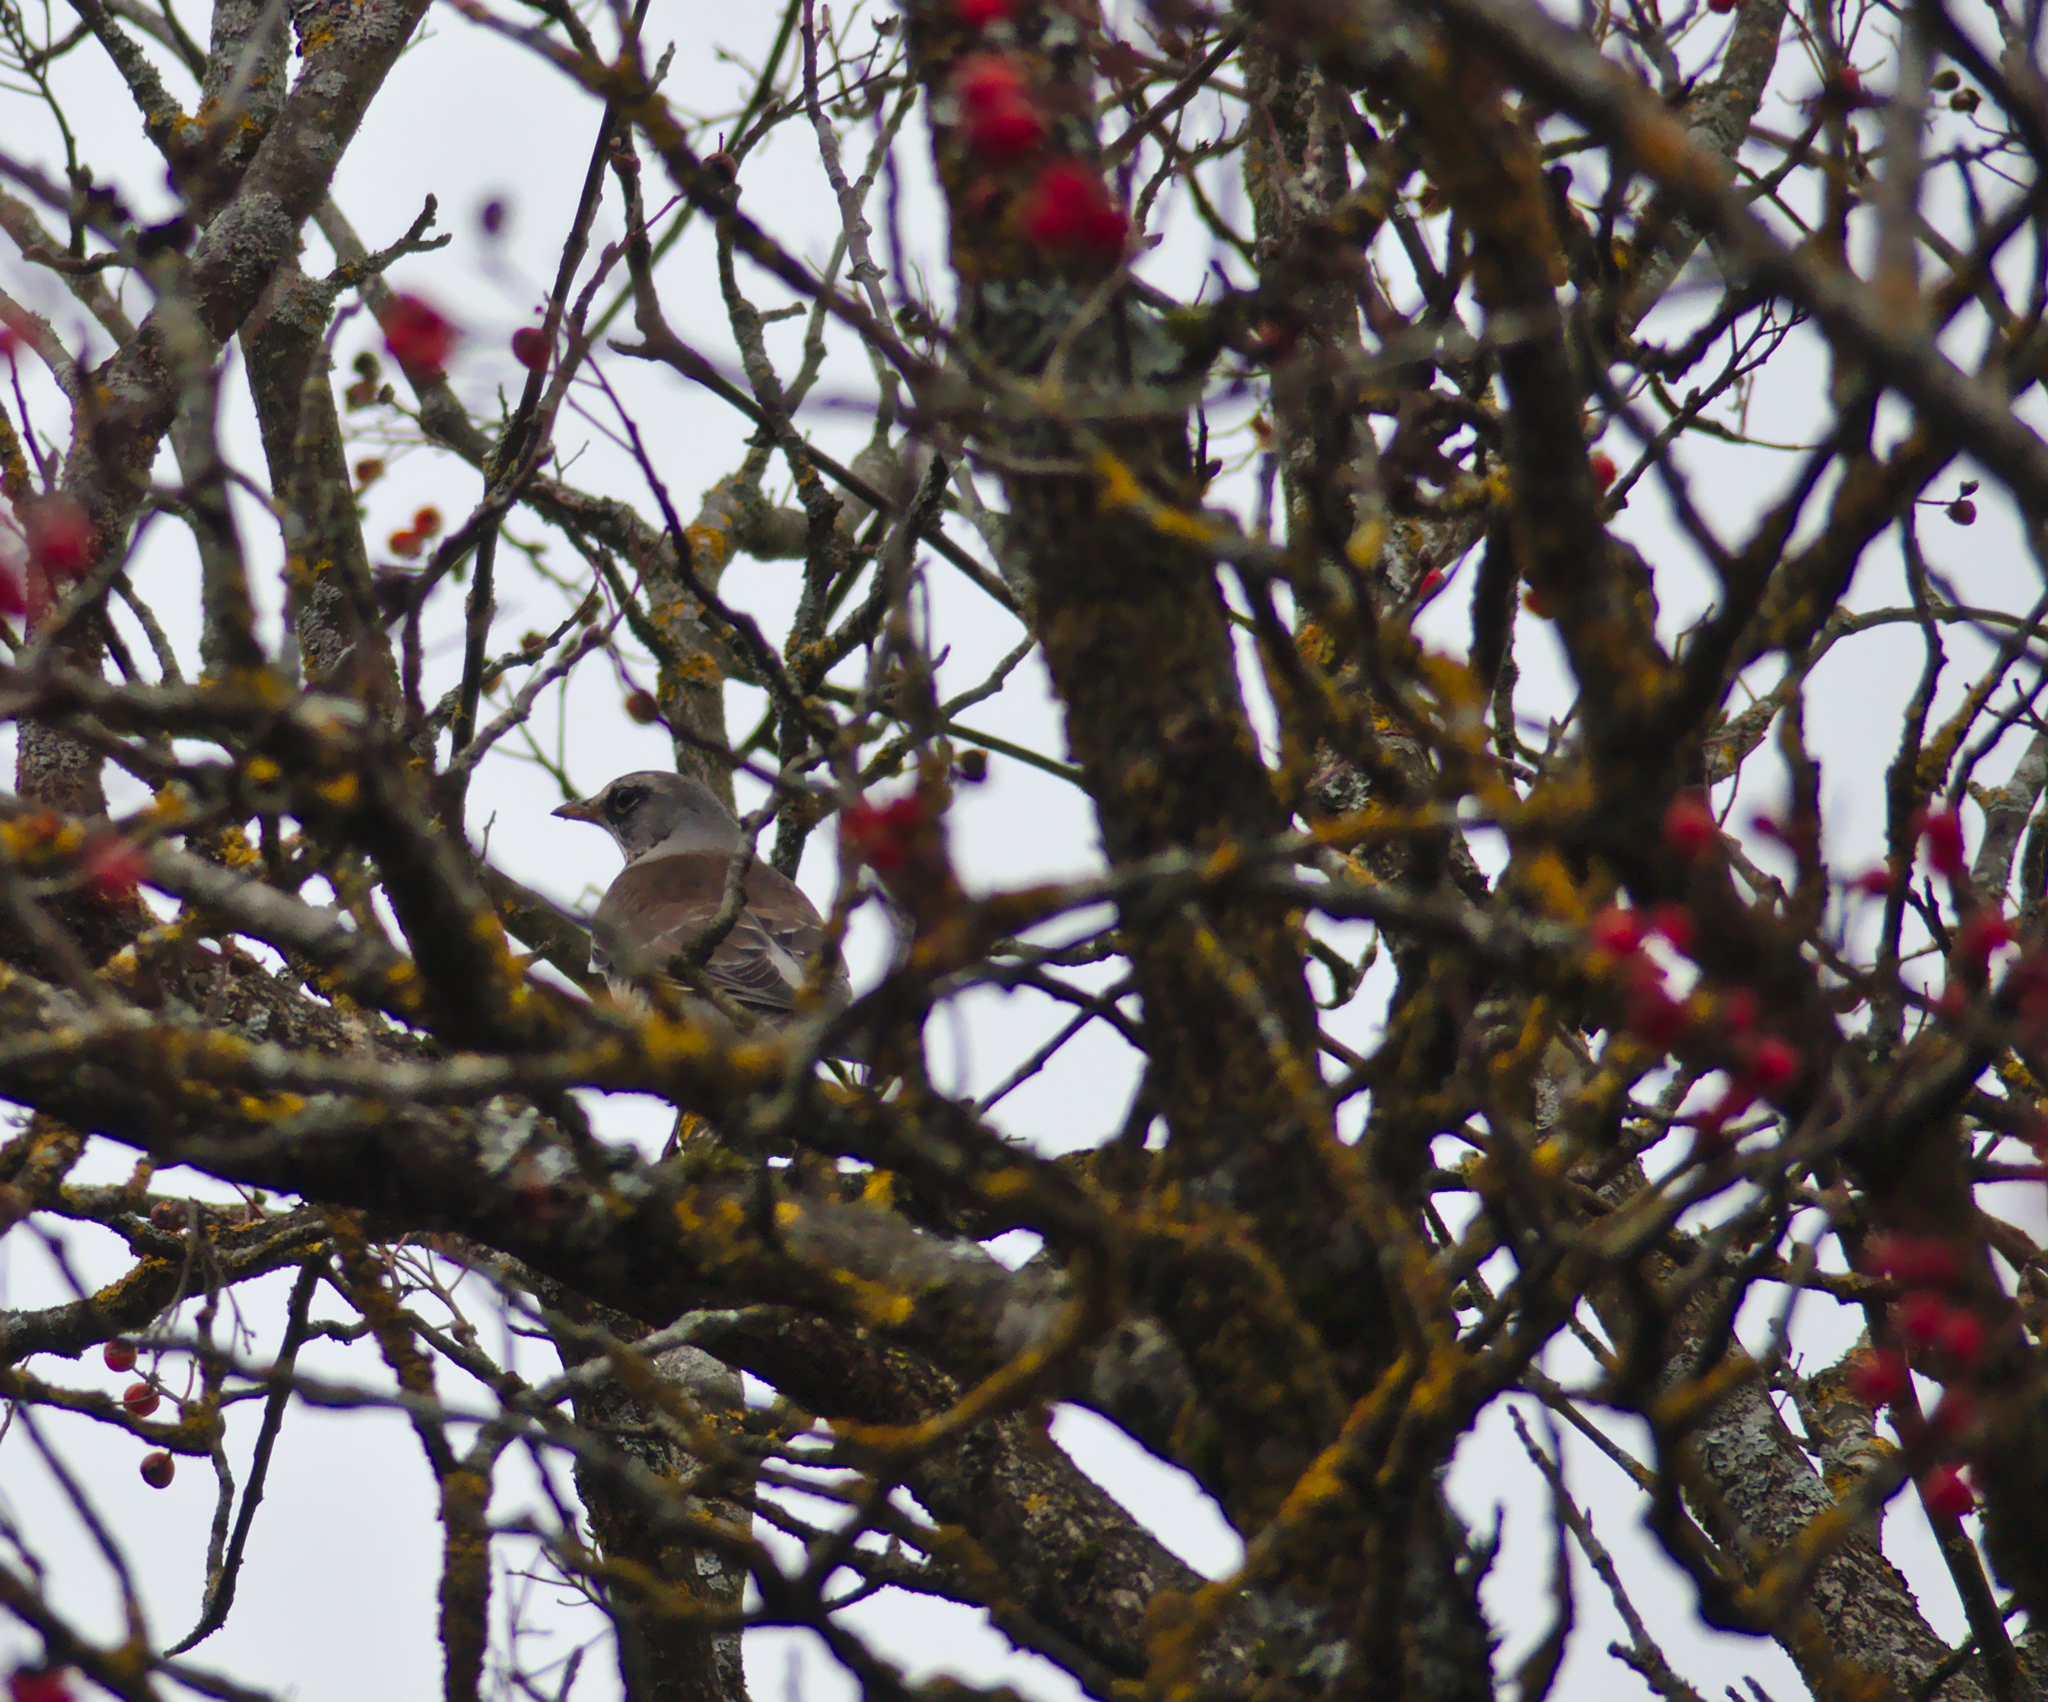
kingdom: Animalia
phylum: Chordata
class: Aves
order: Passeriformes
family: Turdidae
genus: Turdus
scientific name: Turdus pilaris
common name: Fieldfare
